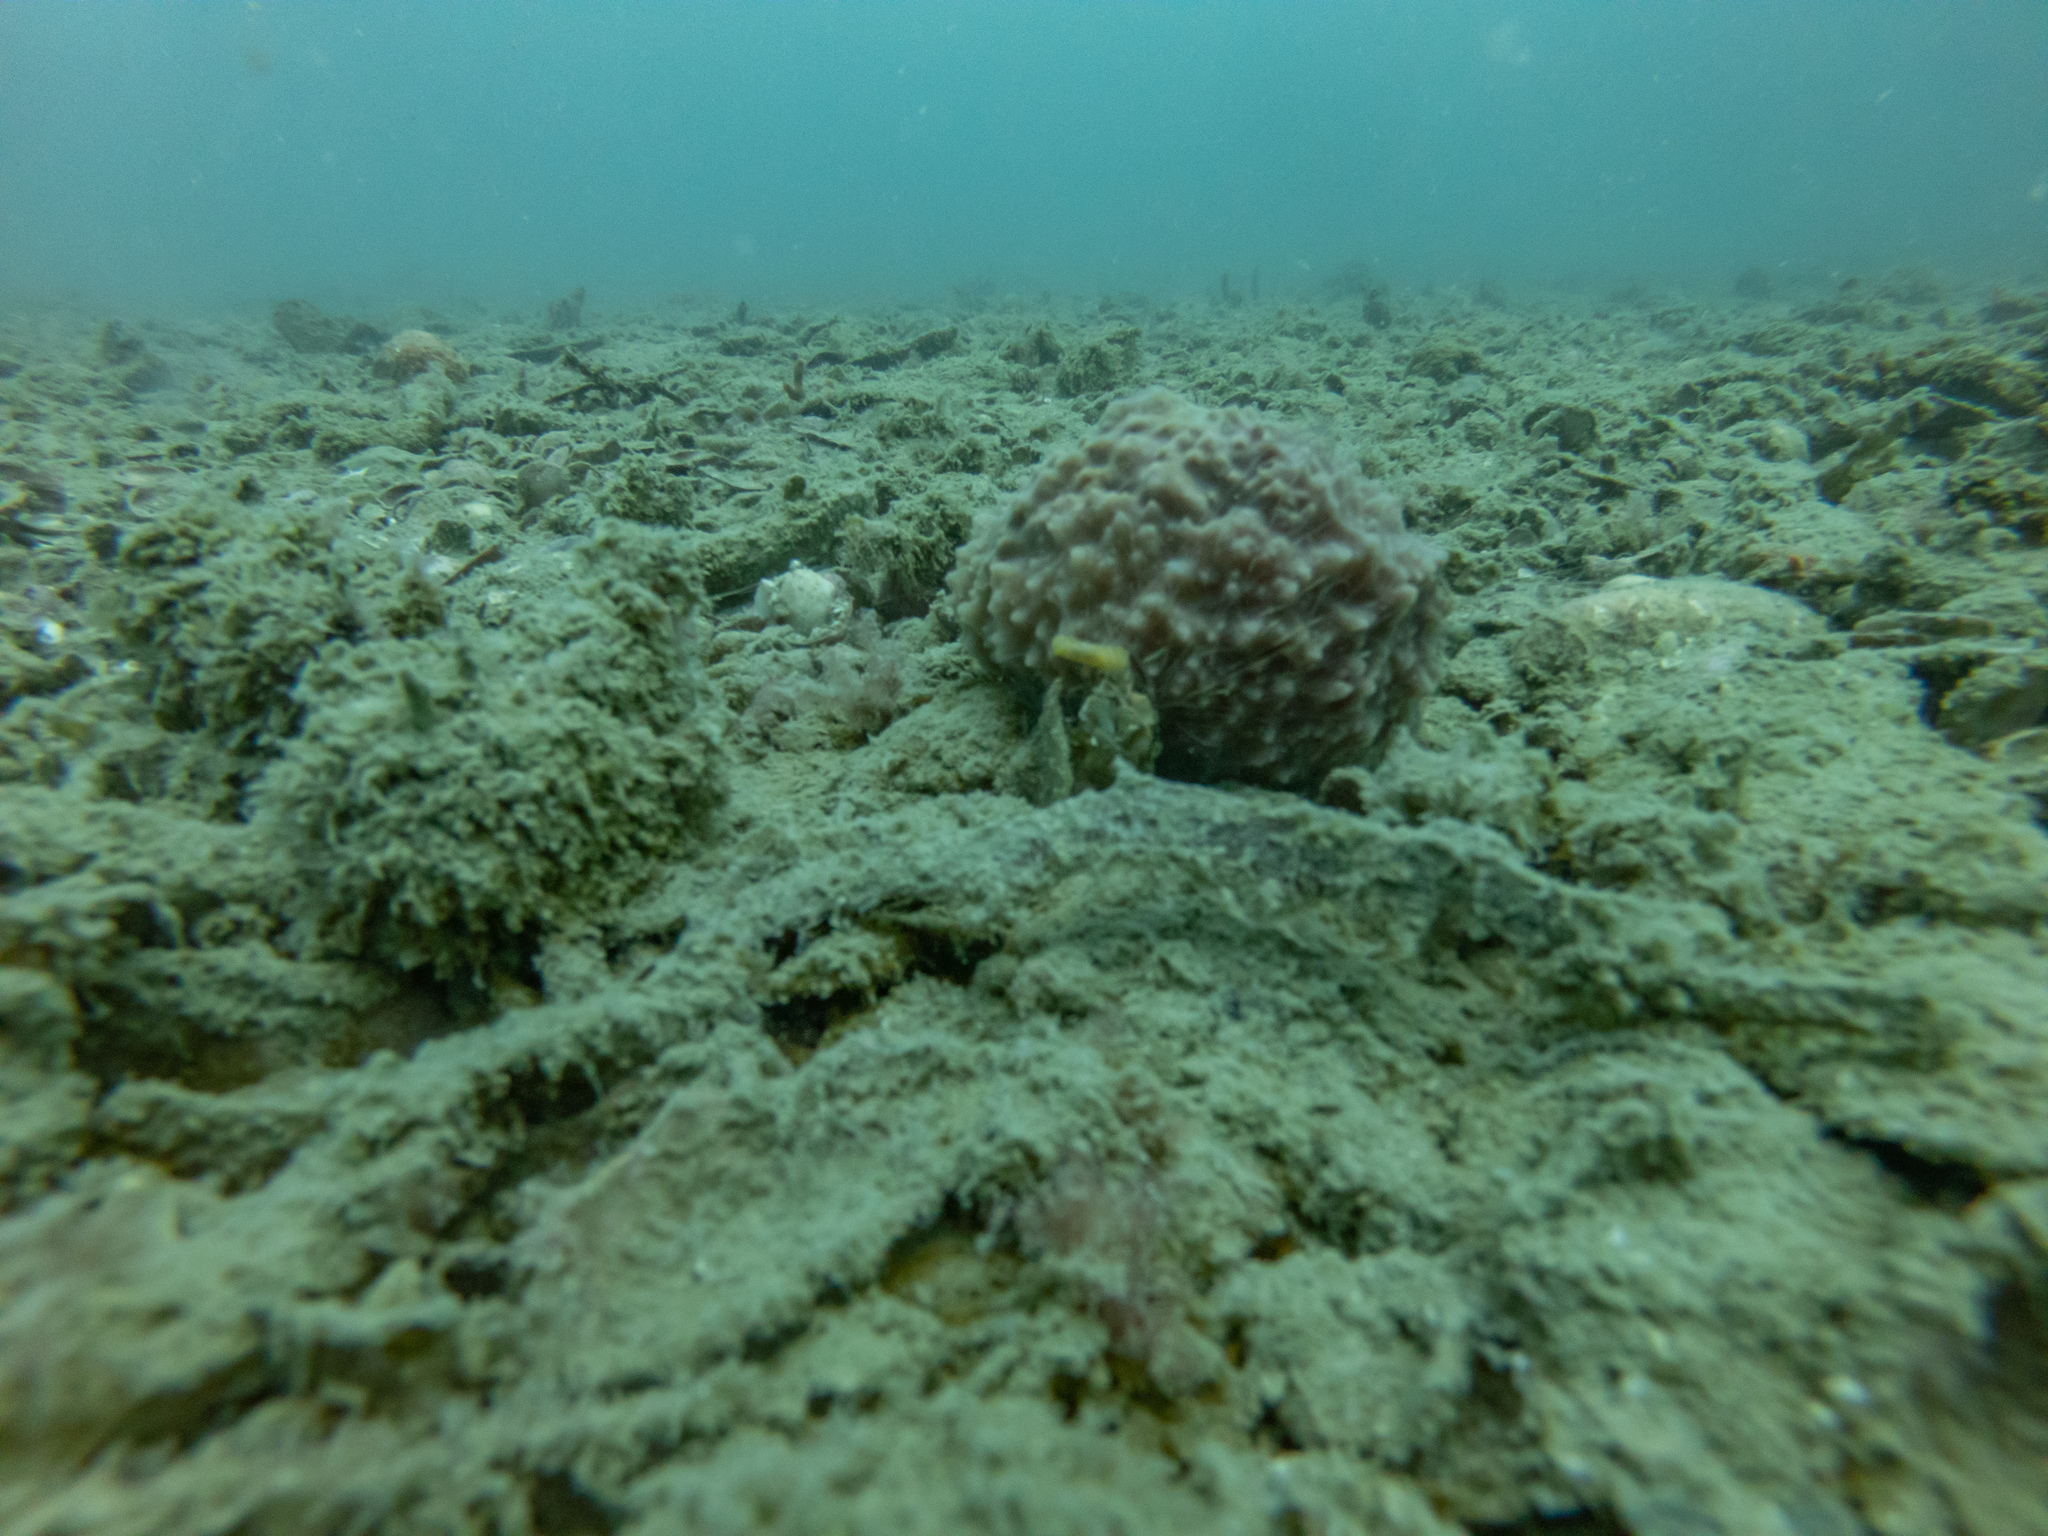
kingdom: Animalia
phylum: Porifera
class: Demospongiae
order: Suberitida
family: Suberitidae
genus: Aaptos
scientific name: Aaptos tenta
